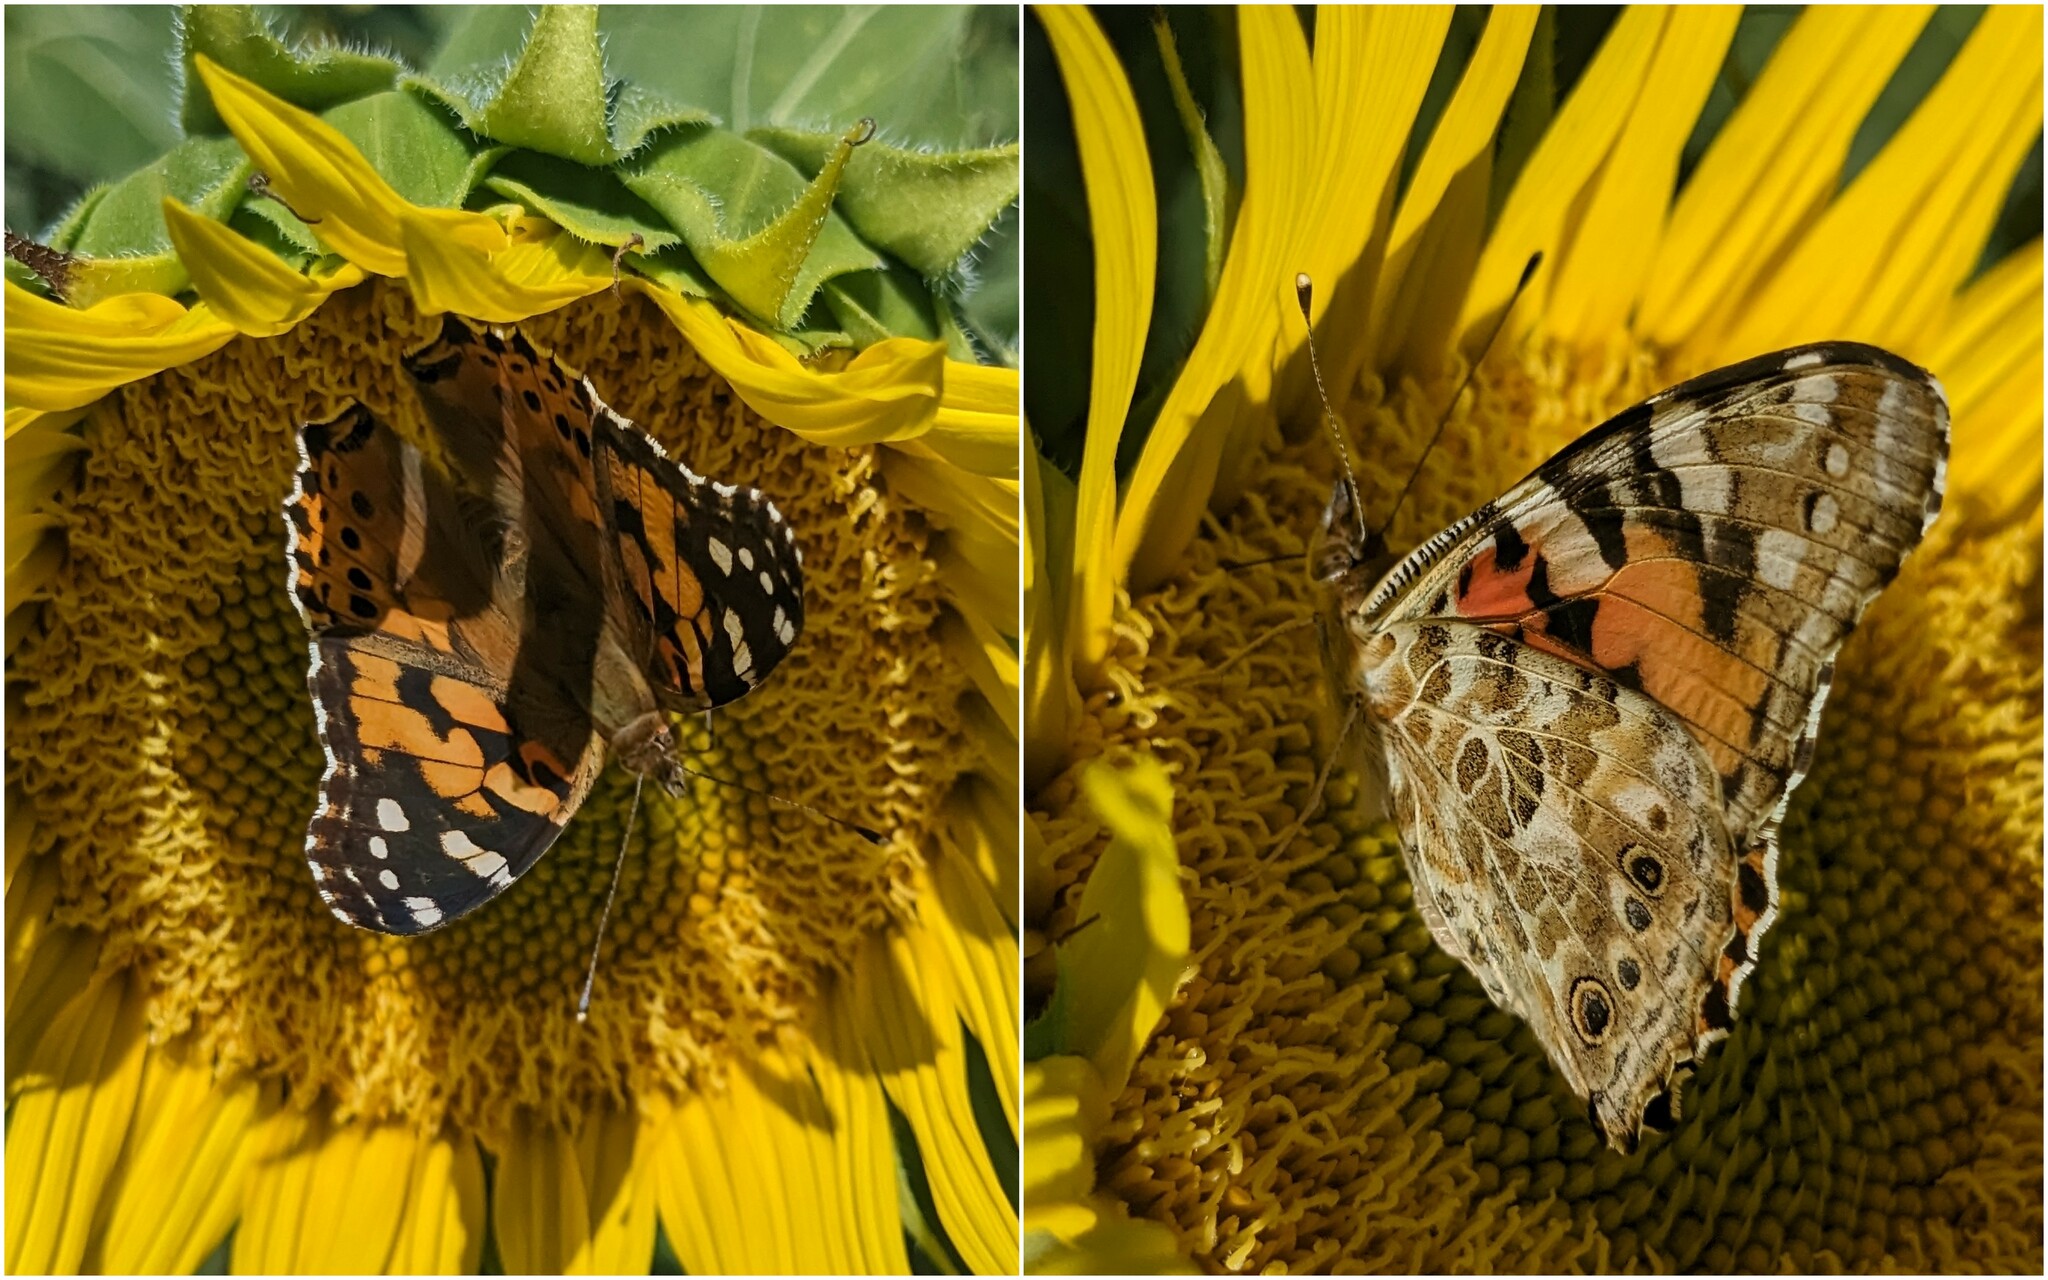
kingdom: Animalia
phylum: Arthropoda
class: Insecta
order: Lepidoptera
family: Nymphalidae
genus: Vanessa
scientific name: Vanessa cardui
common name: Painted lady
